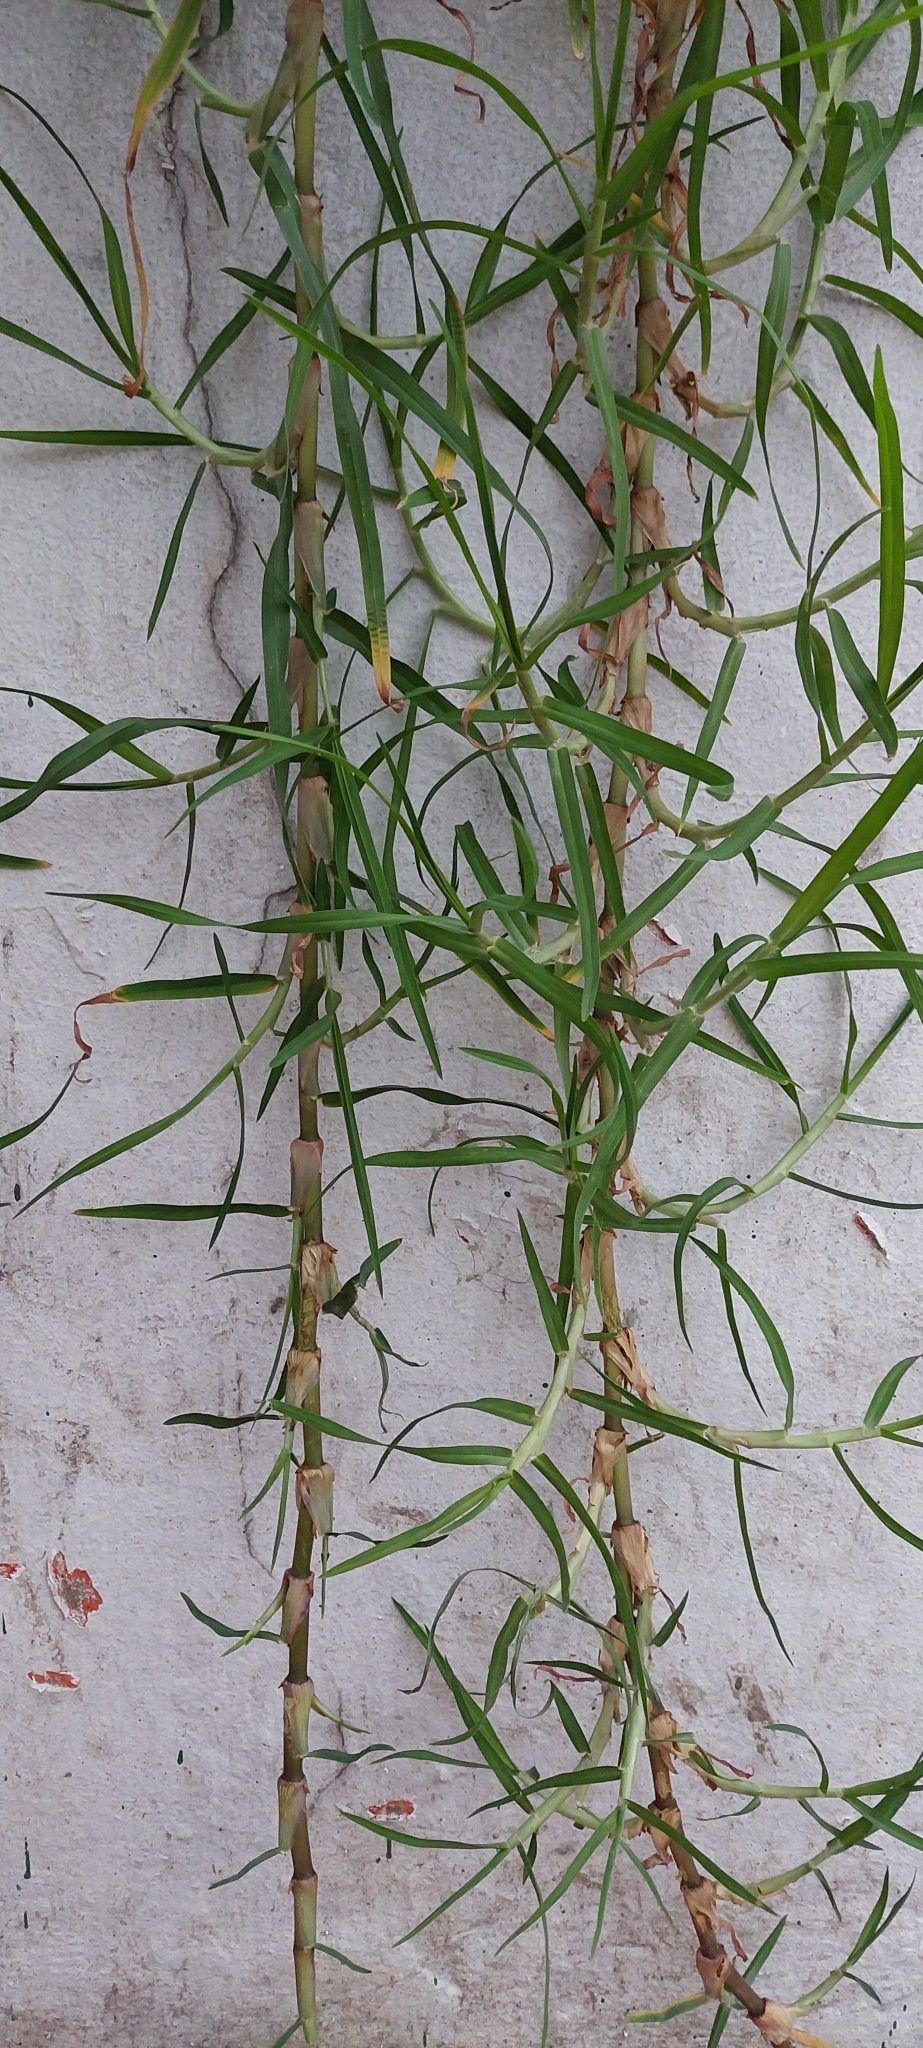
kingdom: Plantae
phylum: Tracheophyta
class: Liliopsida
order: Poales
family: Poaceae
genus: Cenchrus
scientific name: Cenchrus clandestinus
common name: Kikuyugrass
